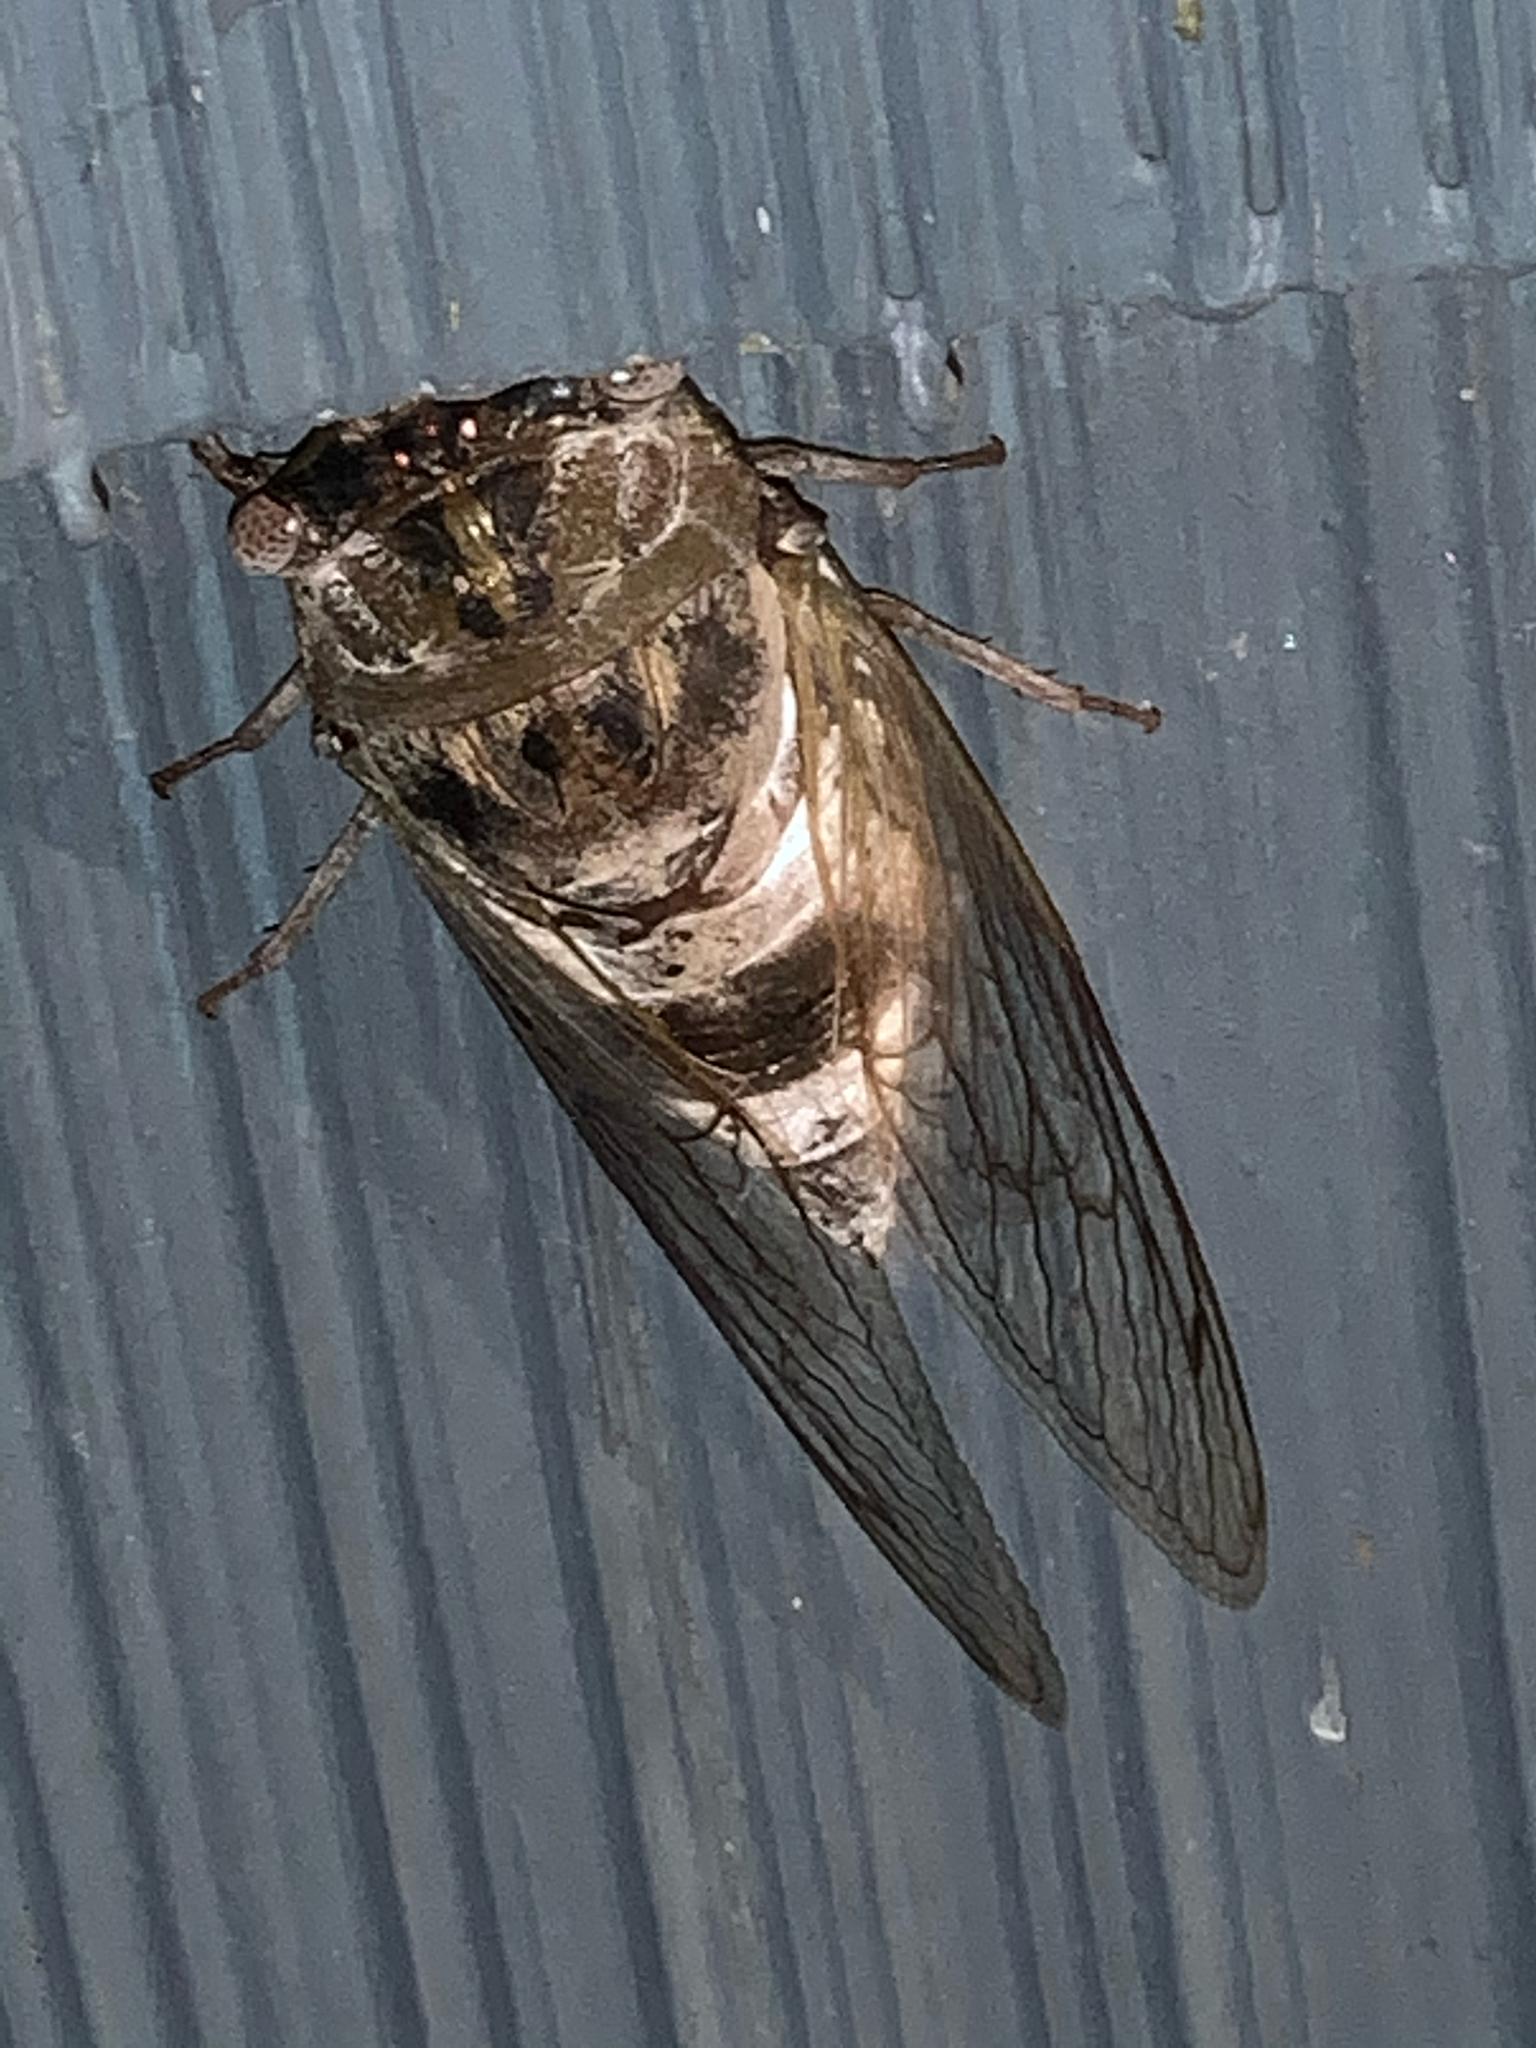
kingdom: Animalia
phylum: Arthropoda
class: Insecta
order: Hemiptera
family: Cicadidae
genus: Diceroprocta
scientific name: Diceroprocta grossa
